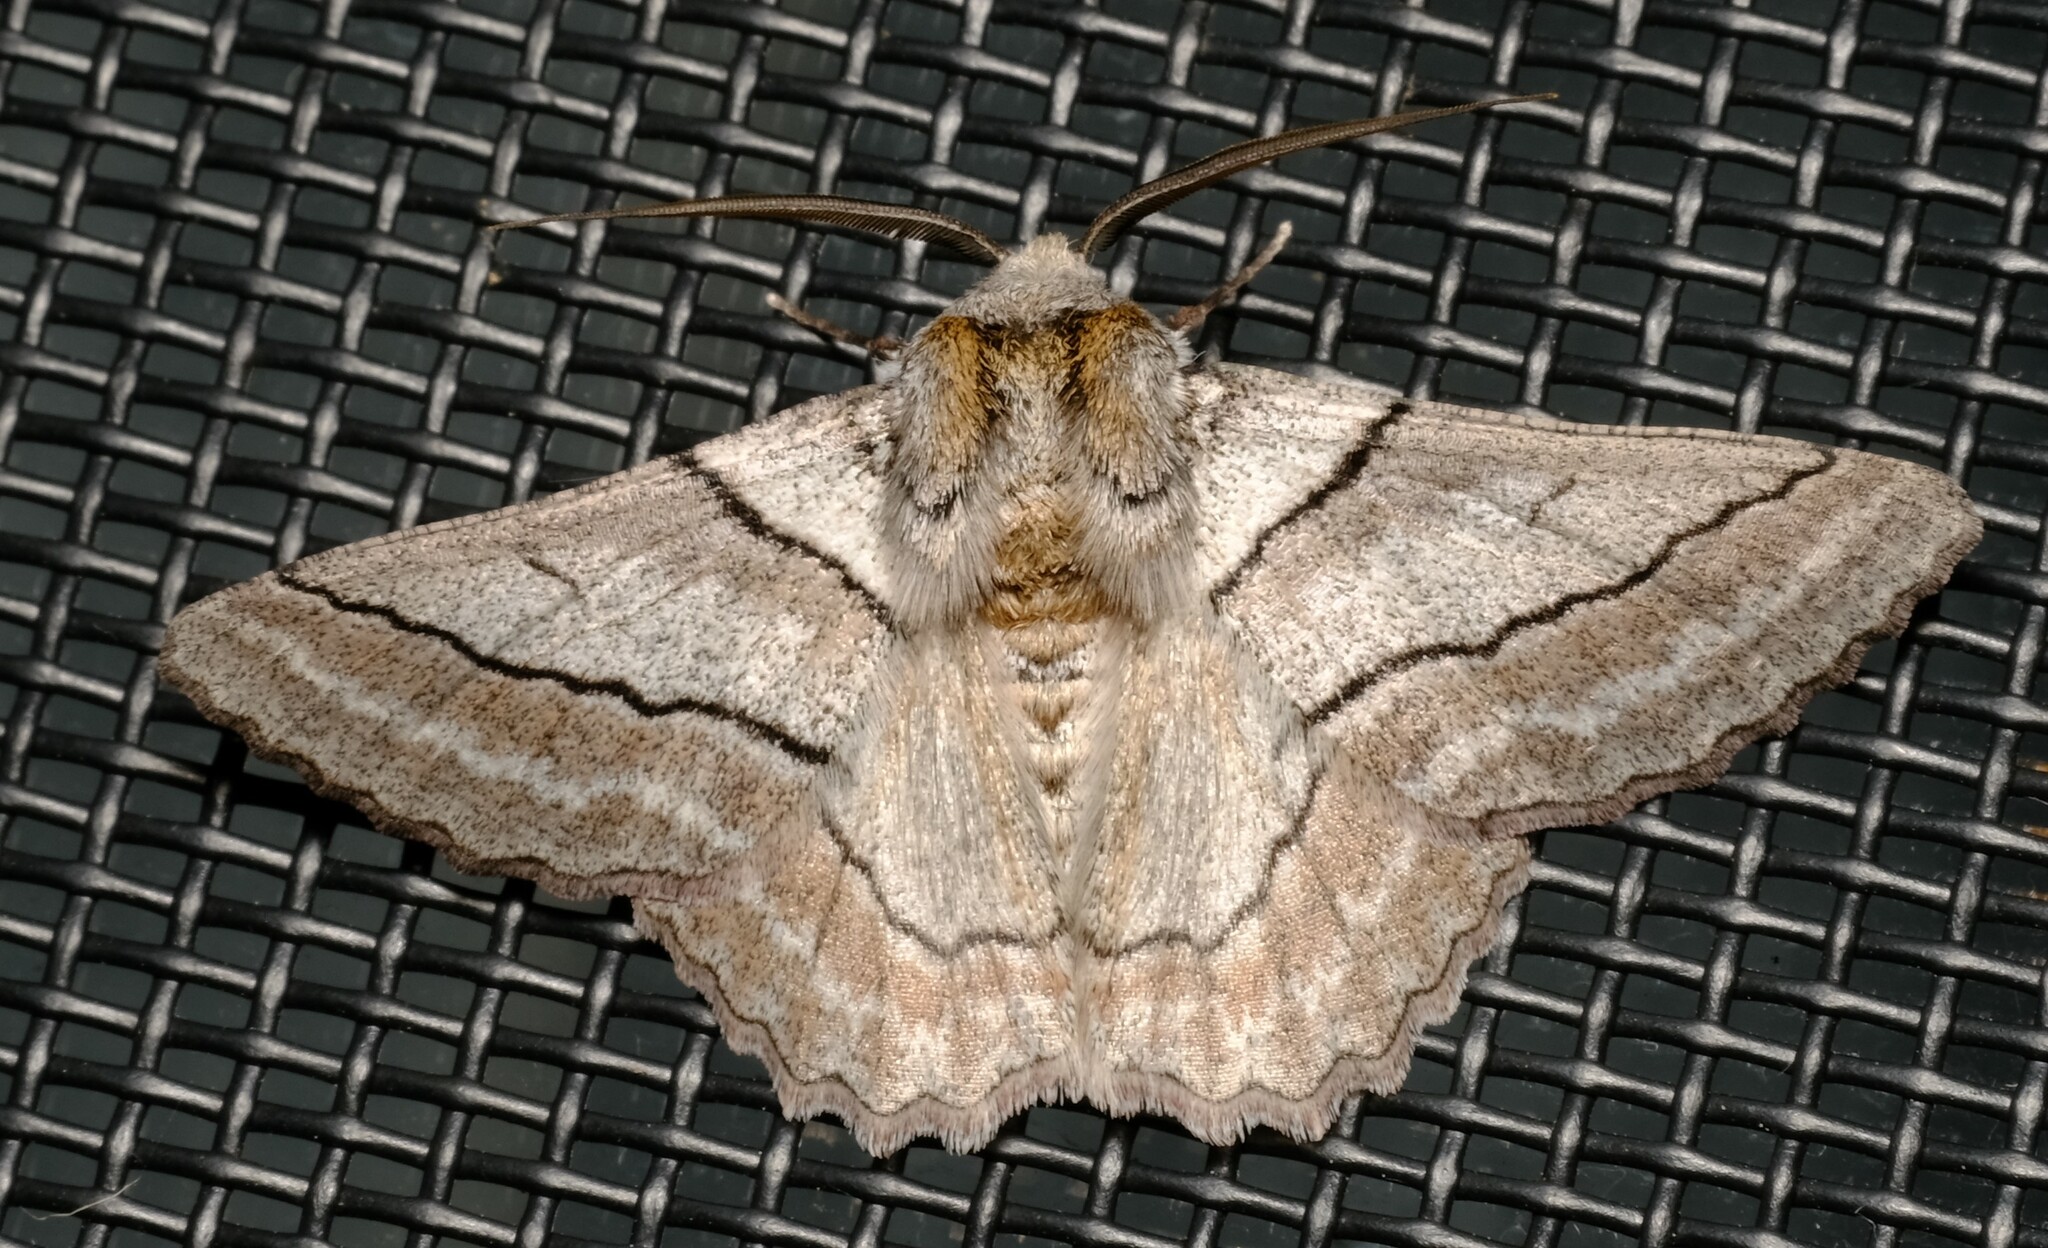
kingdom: Animalia
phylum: Arthropoda
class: Insecta
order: Lepidoptera
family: Geometridae
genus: Hypobapta
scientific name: Hypobapta tachyhalotaria
